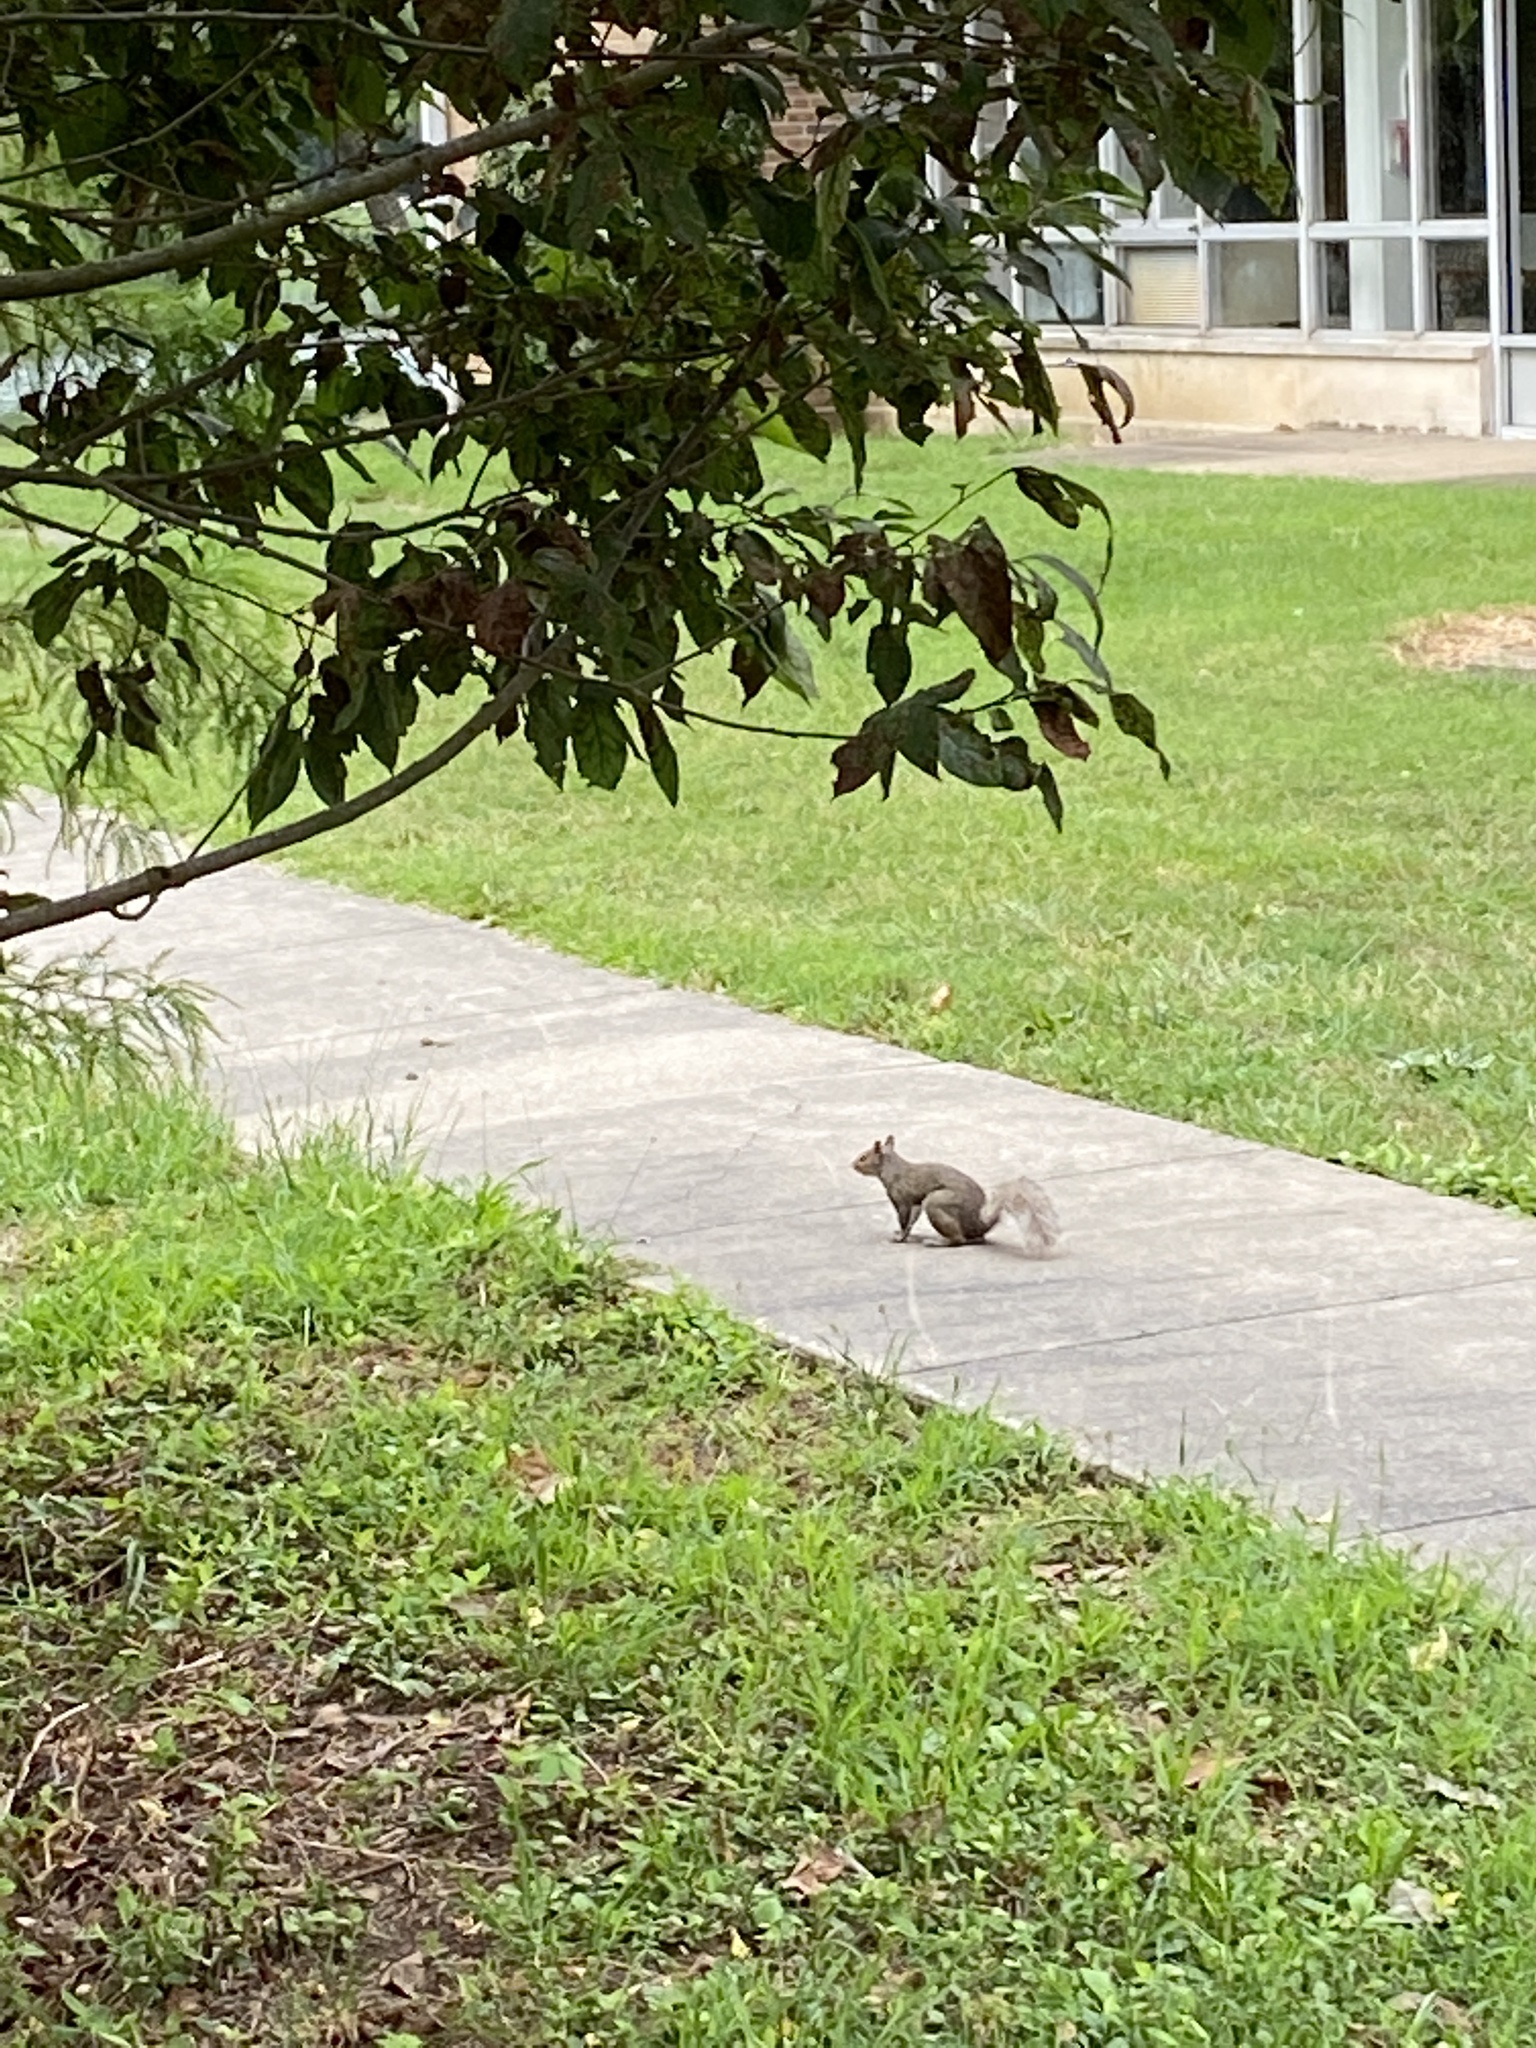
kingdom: Animalia
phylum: Chordata
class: Mammalia
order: Rodentia
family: Sciuridae
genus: Sciurus
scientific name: Sciurus carolinensis
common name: Eastern gray squirrel
